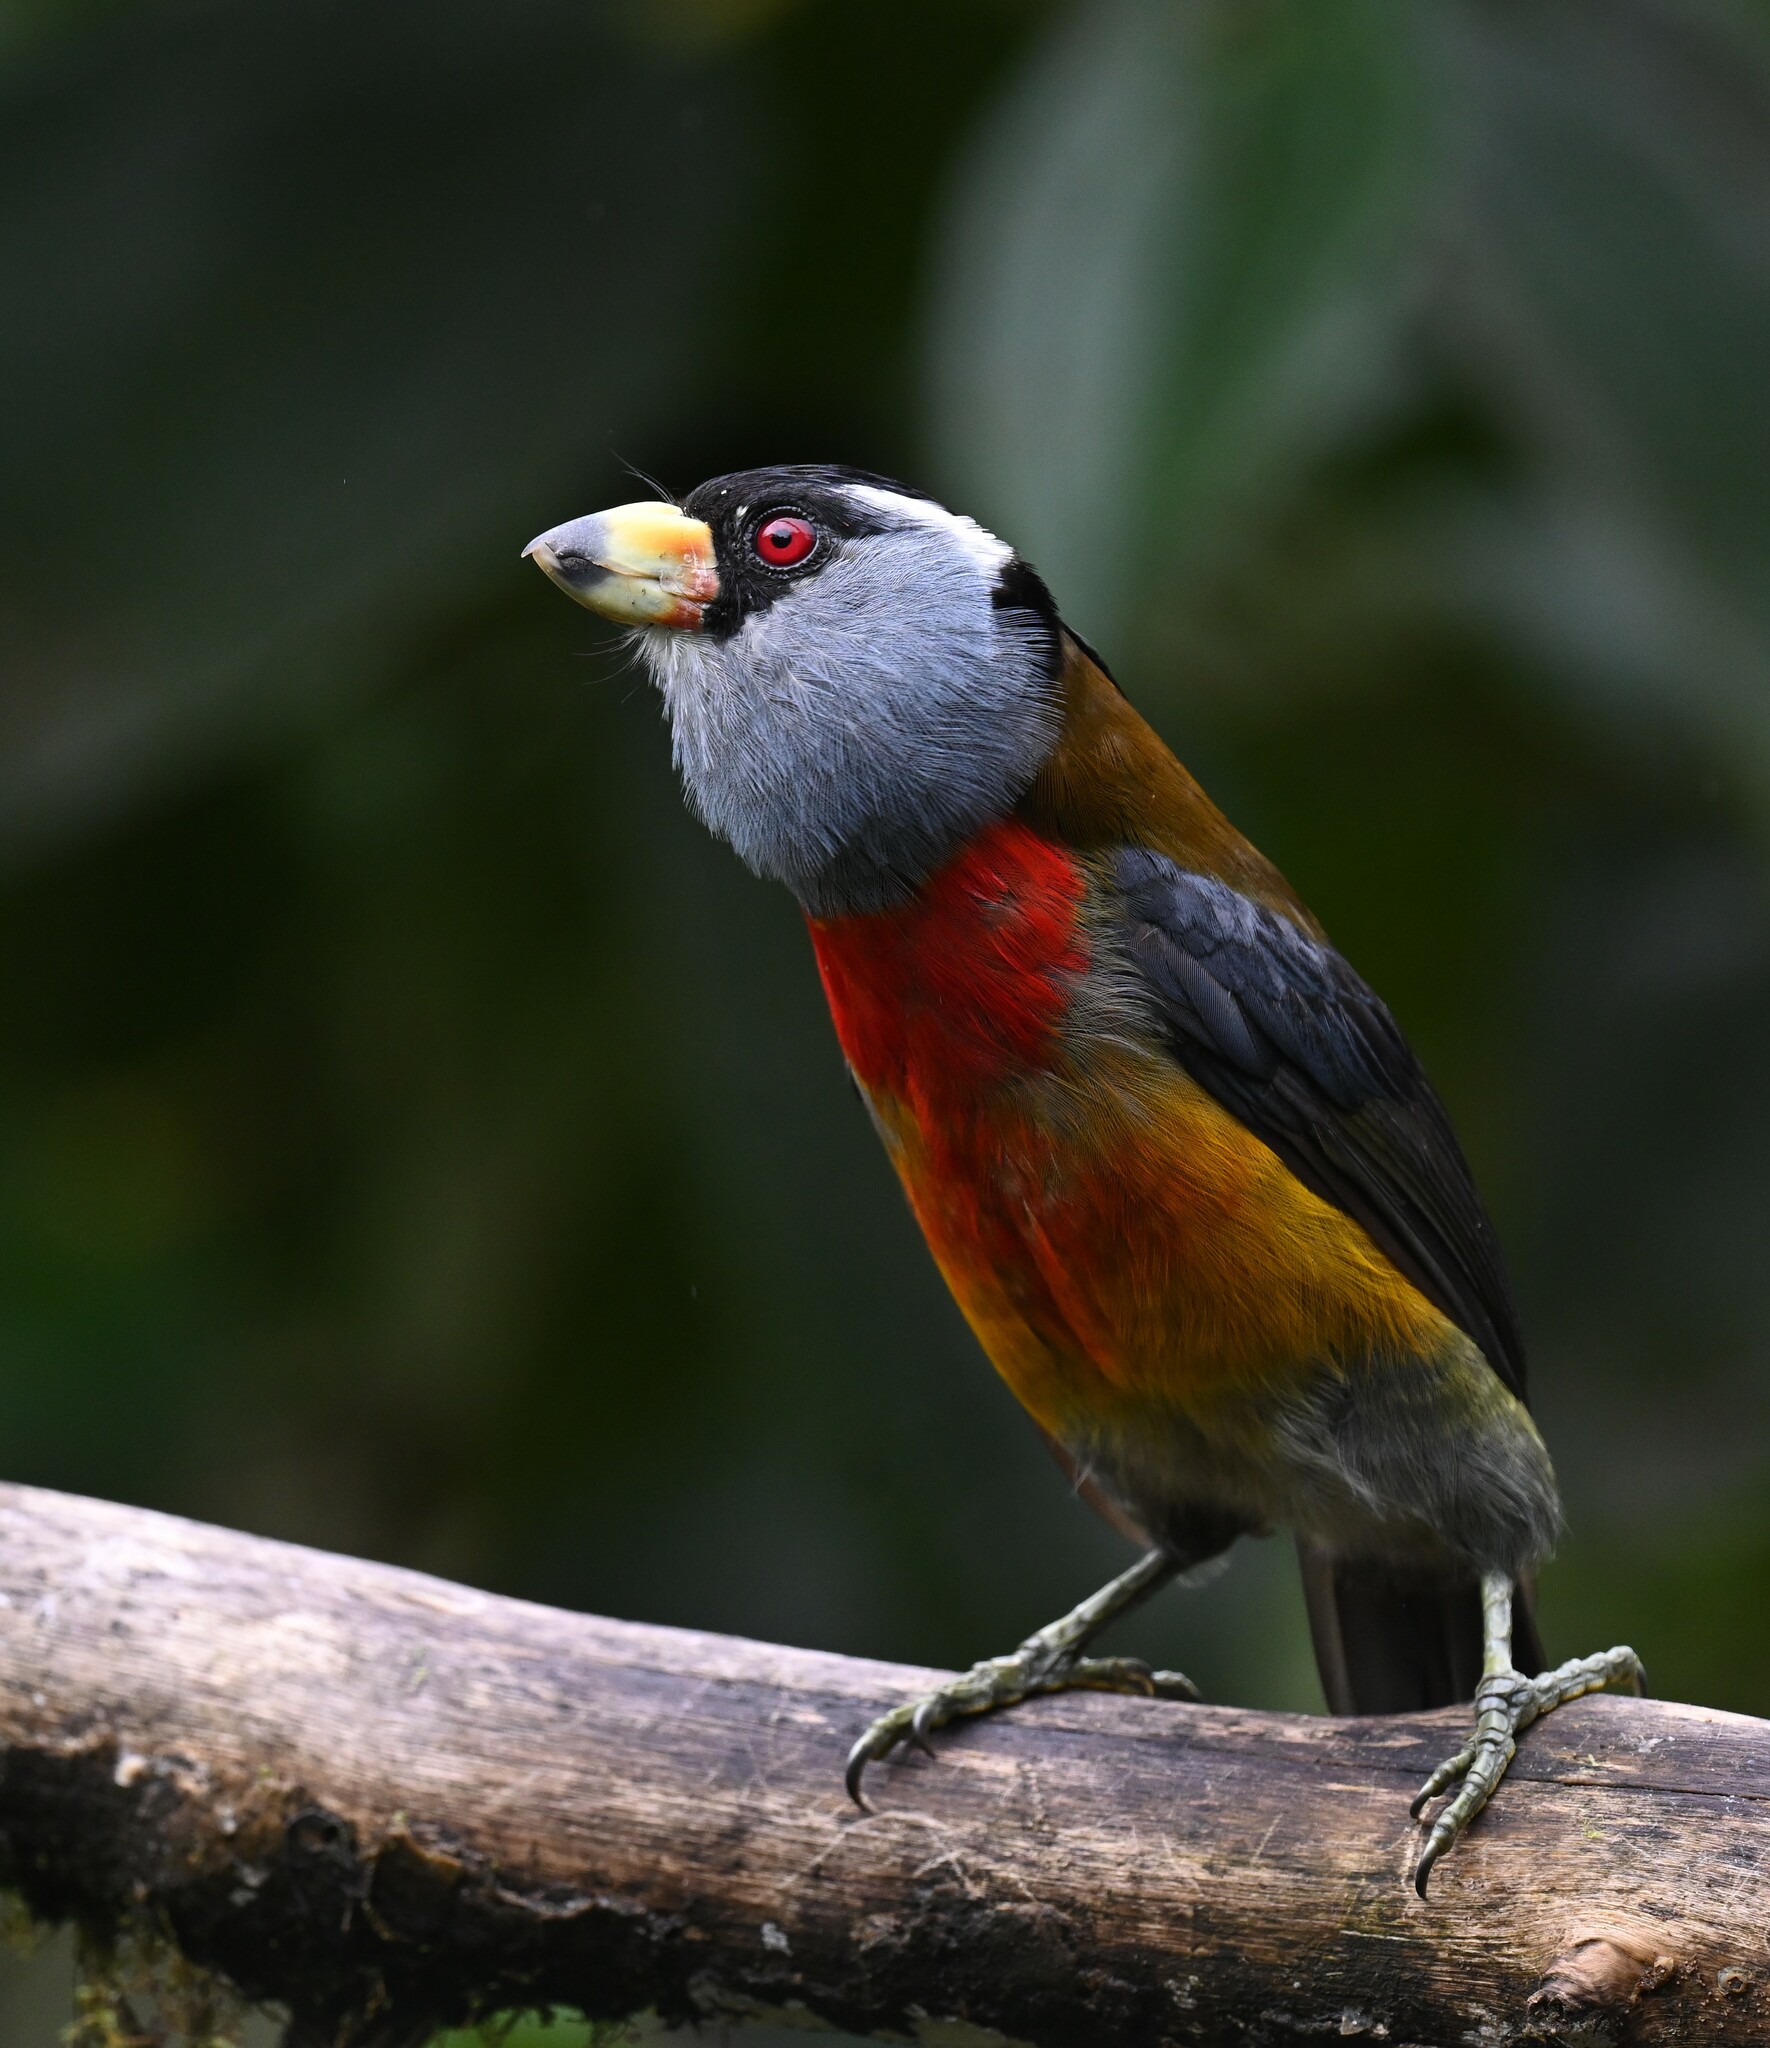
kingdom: Animalia
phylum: Chordata
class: Aves
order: Piciformes
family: Semnornithidae
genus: Semnornis
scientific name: Semnornis ramphastinus
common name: Toucan barbet
